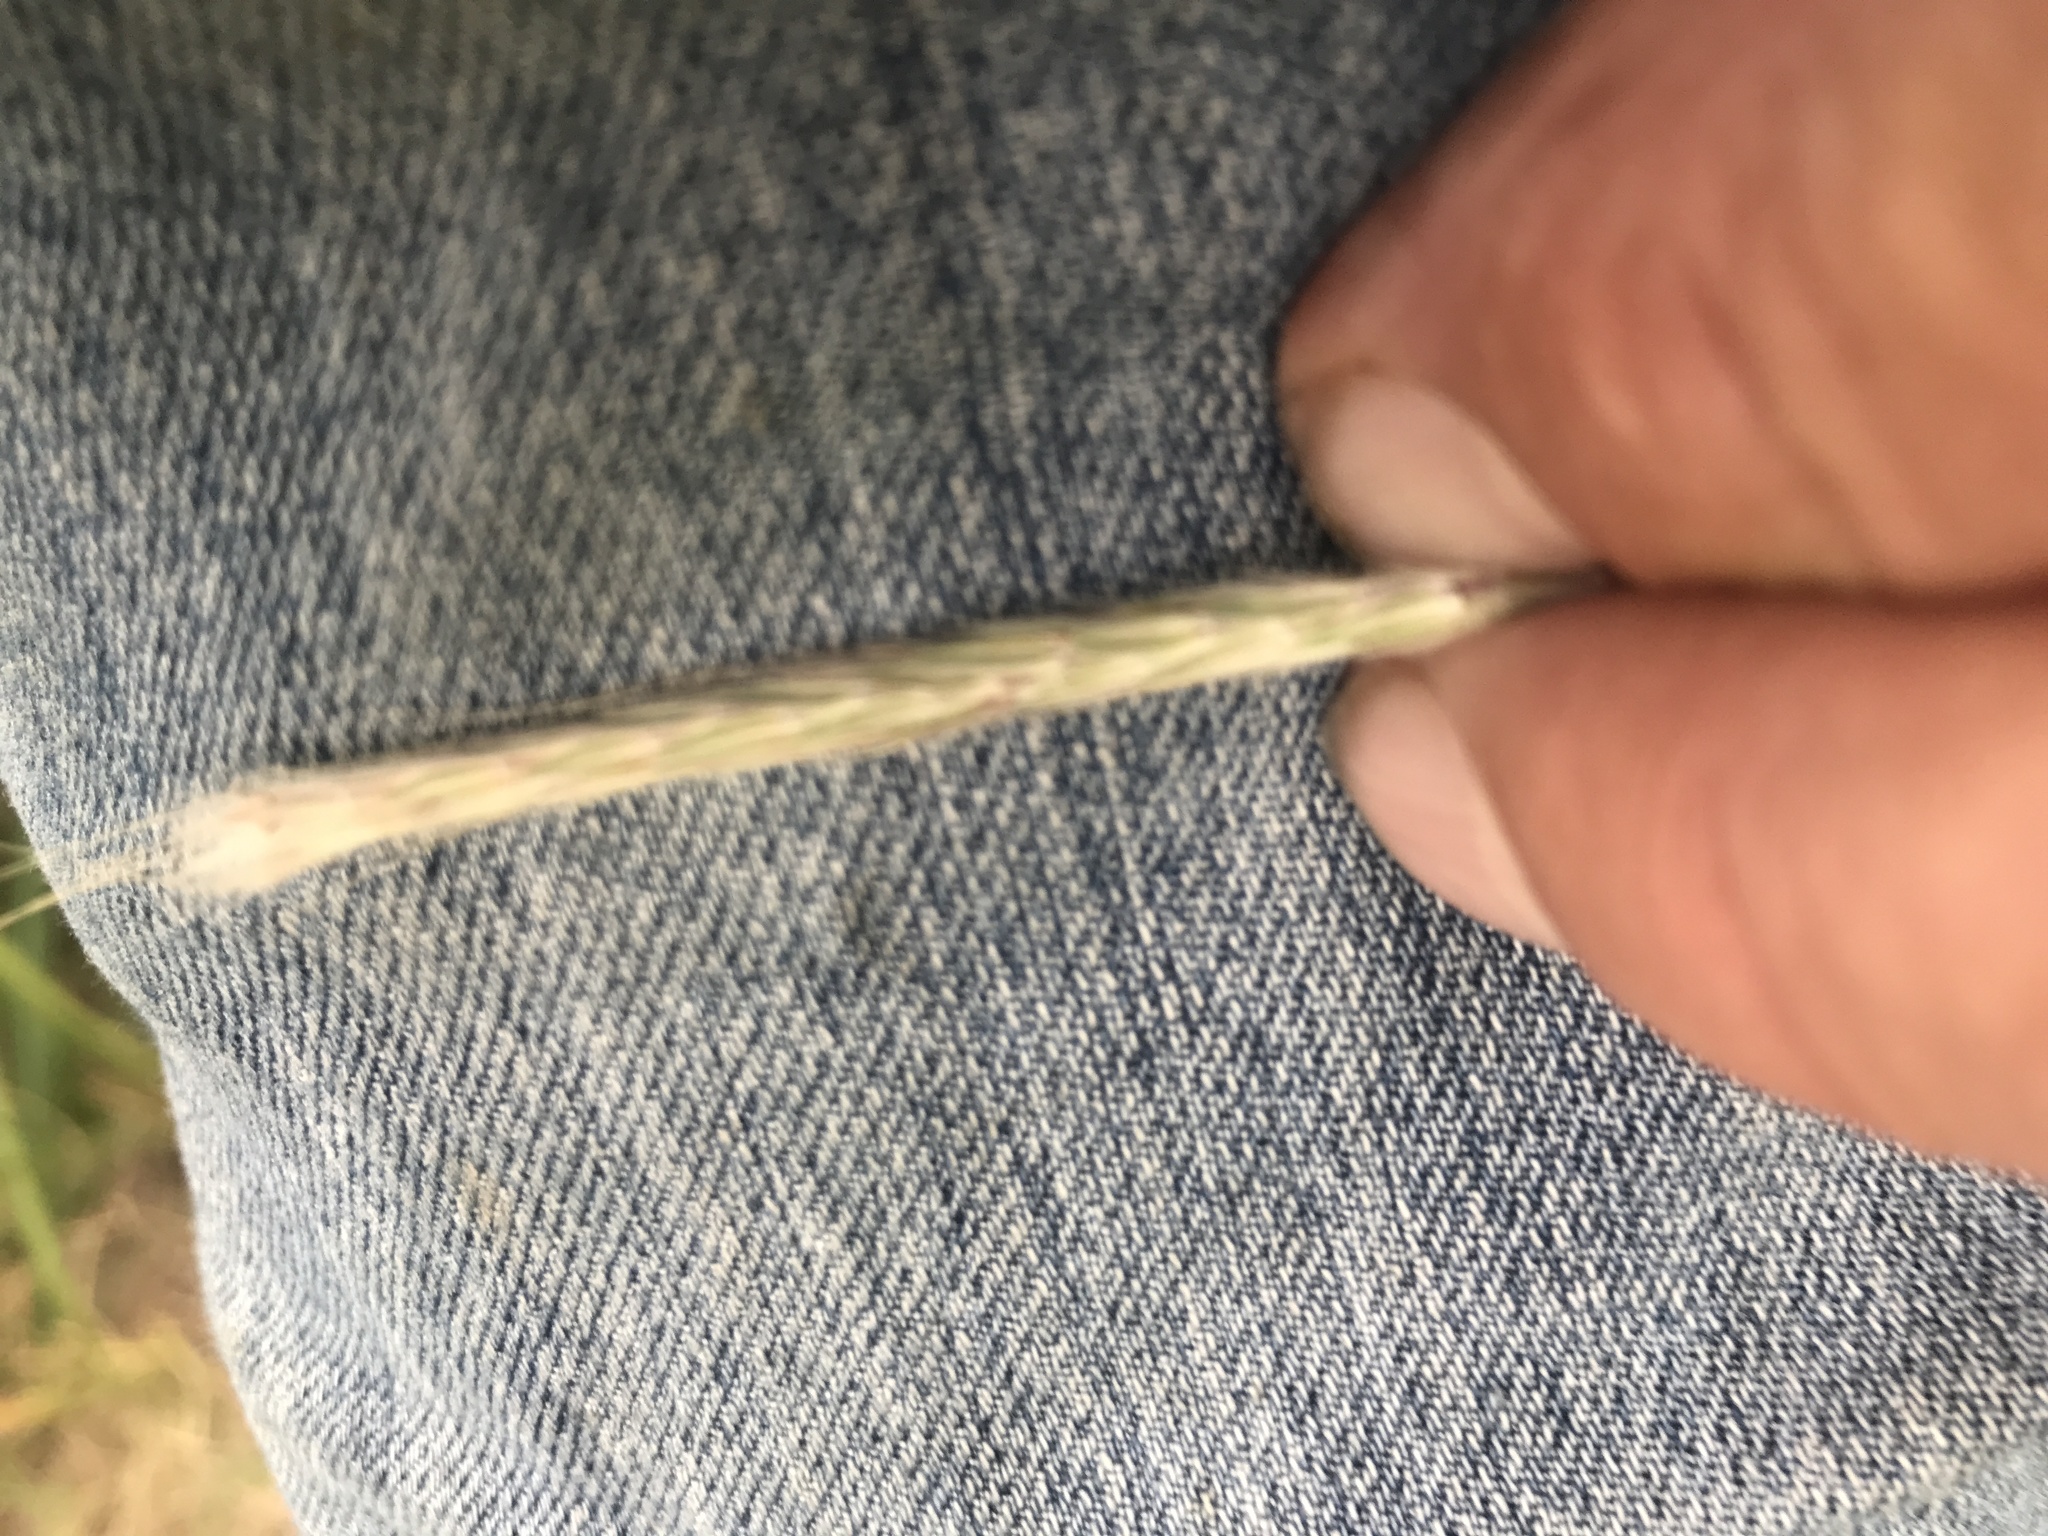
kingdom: Plantae
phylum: Tracheophyta
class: Liliopsida
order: Poales
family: Poaceae
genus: Andropogon
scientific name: Andropogon ternarius
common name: Split bluestem
